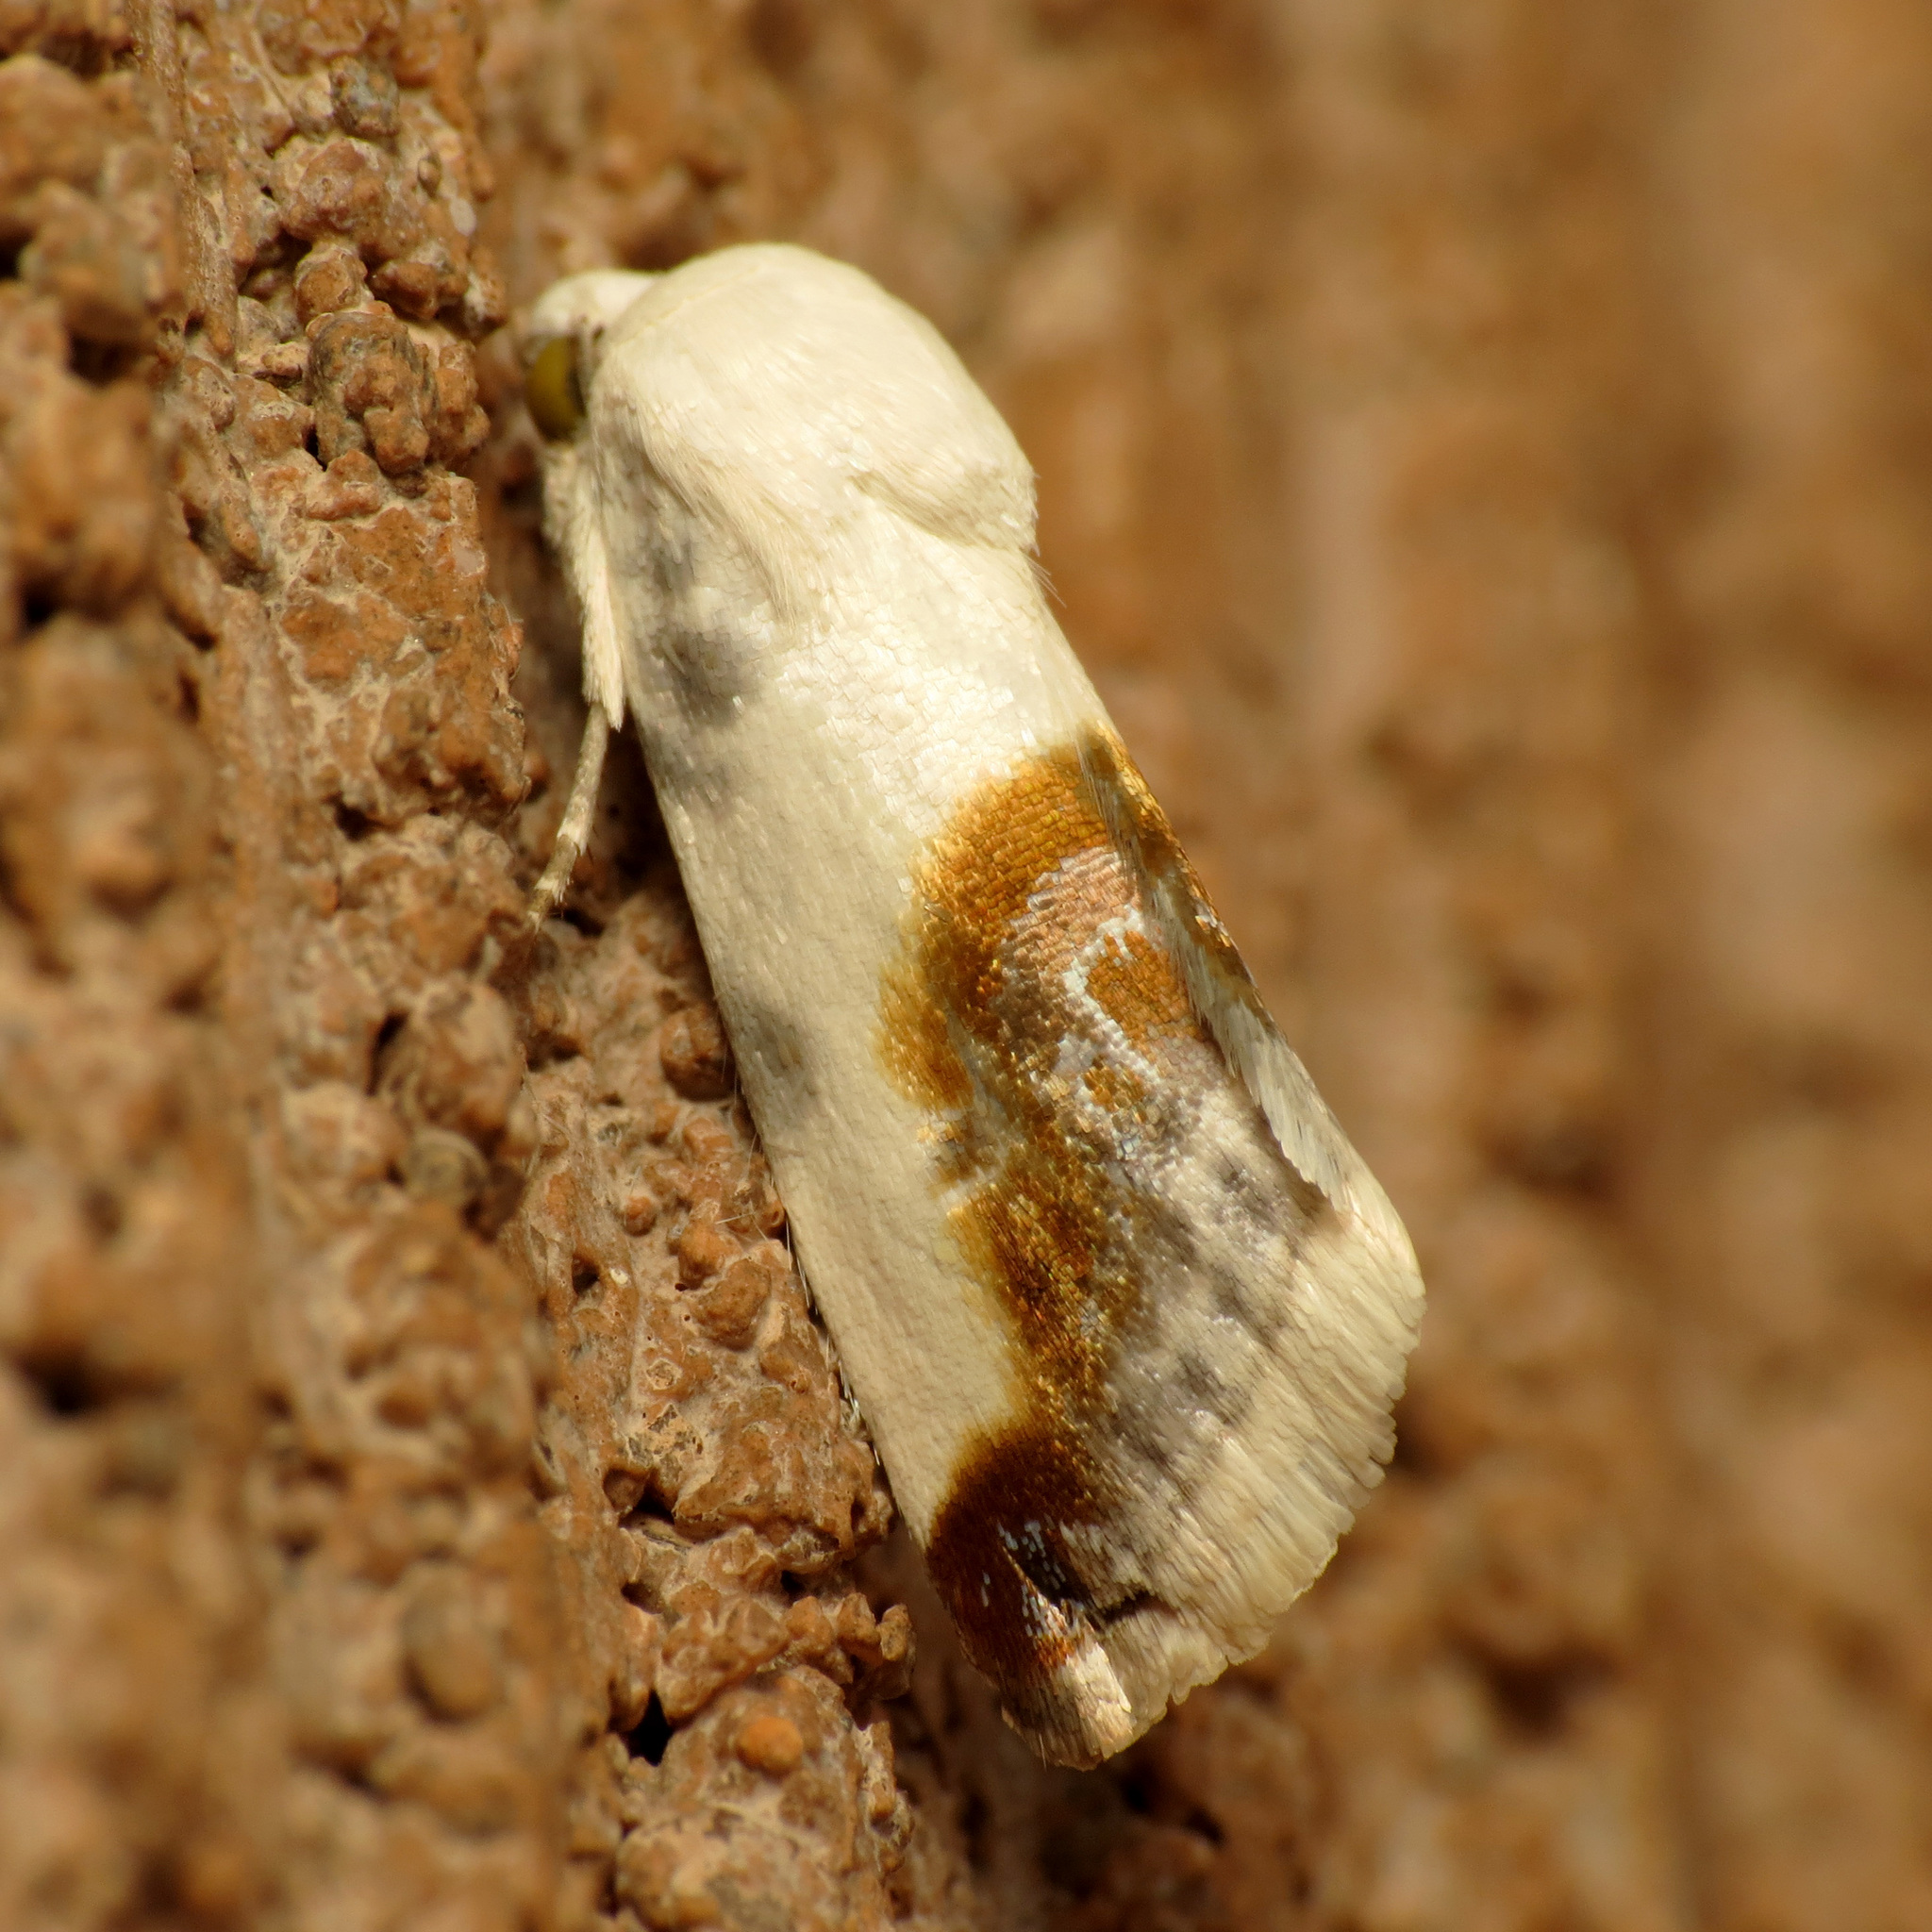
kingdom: Animalia
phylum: Arthropoda
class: Insecta
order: Lepidoptera
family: Noctuidae
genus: Acontia
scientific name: Acontia cretata
